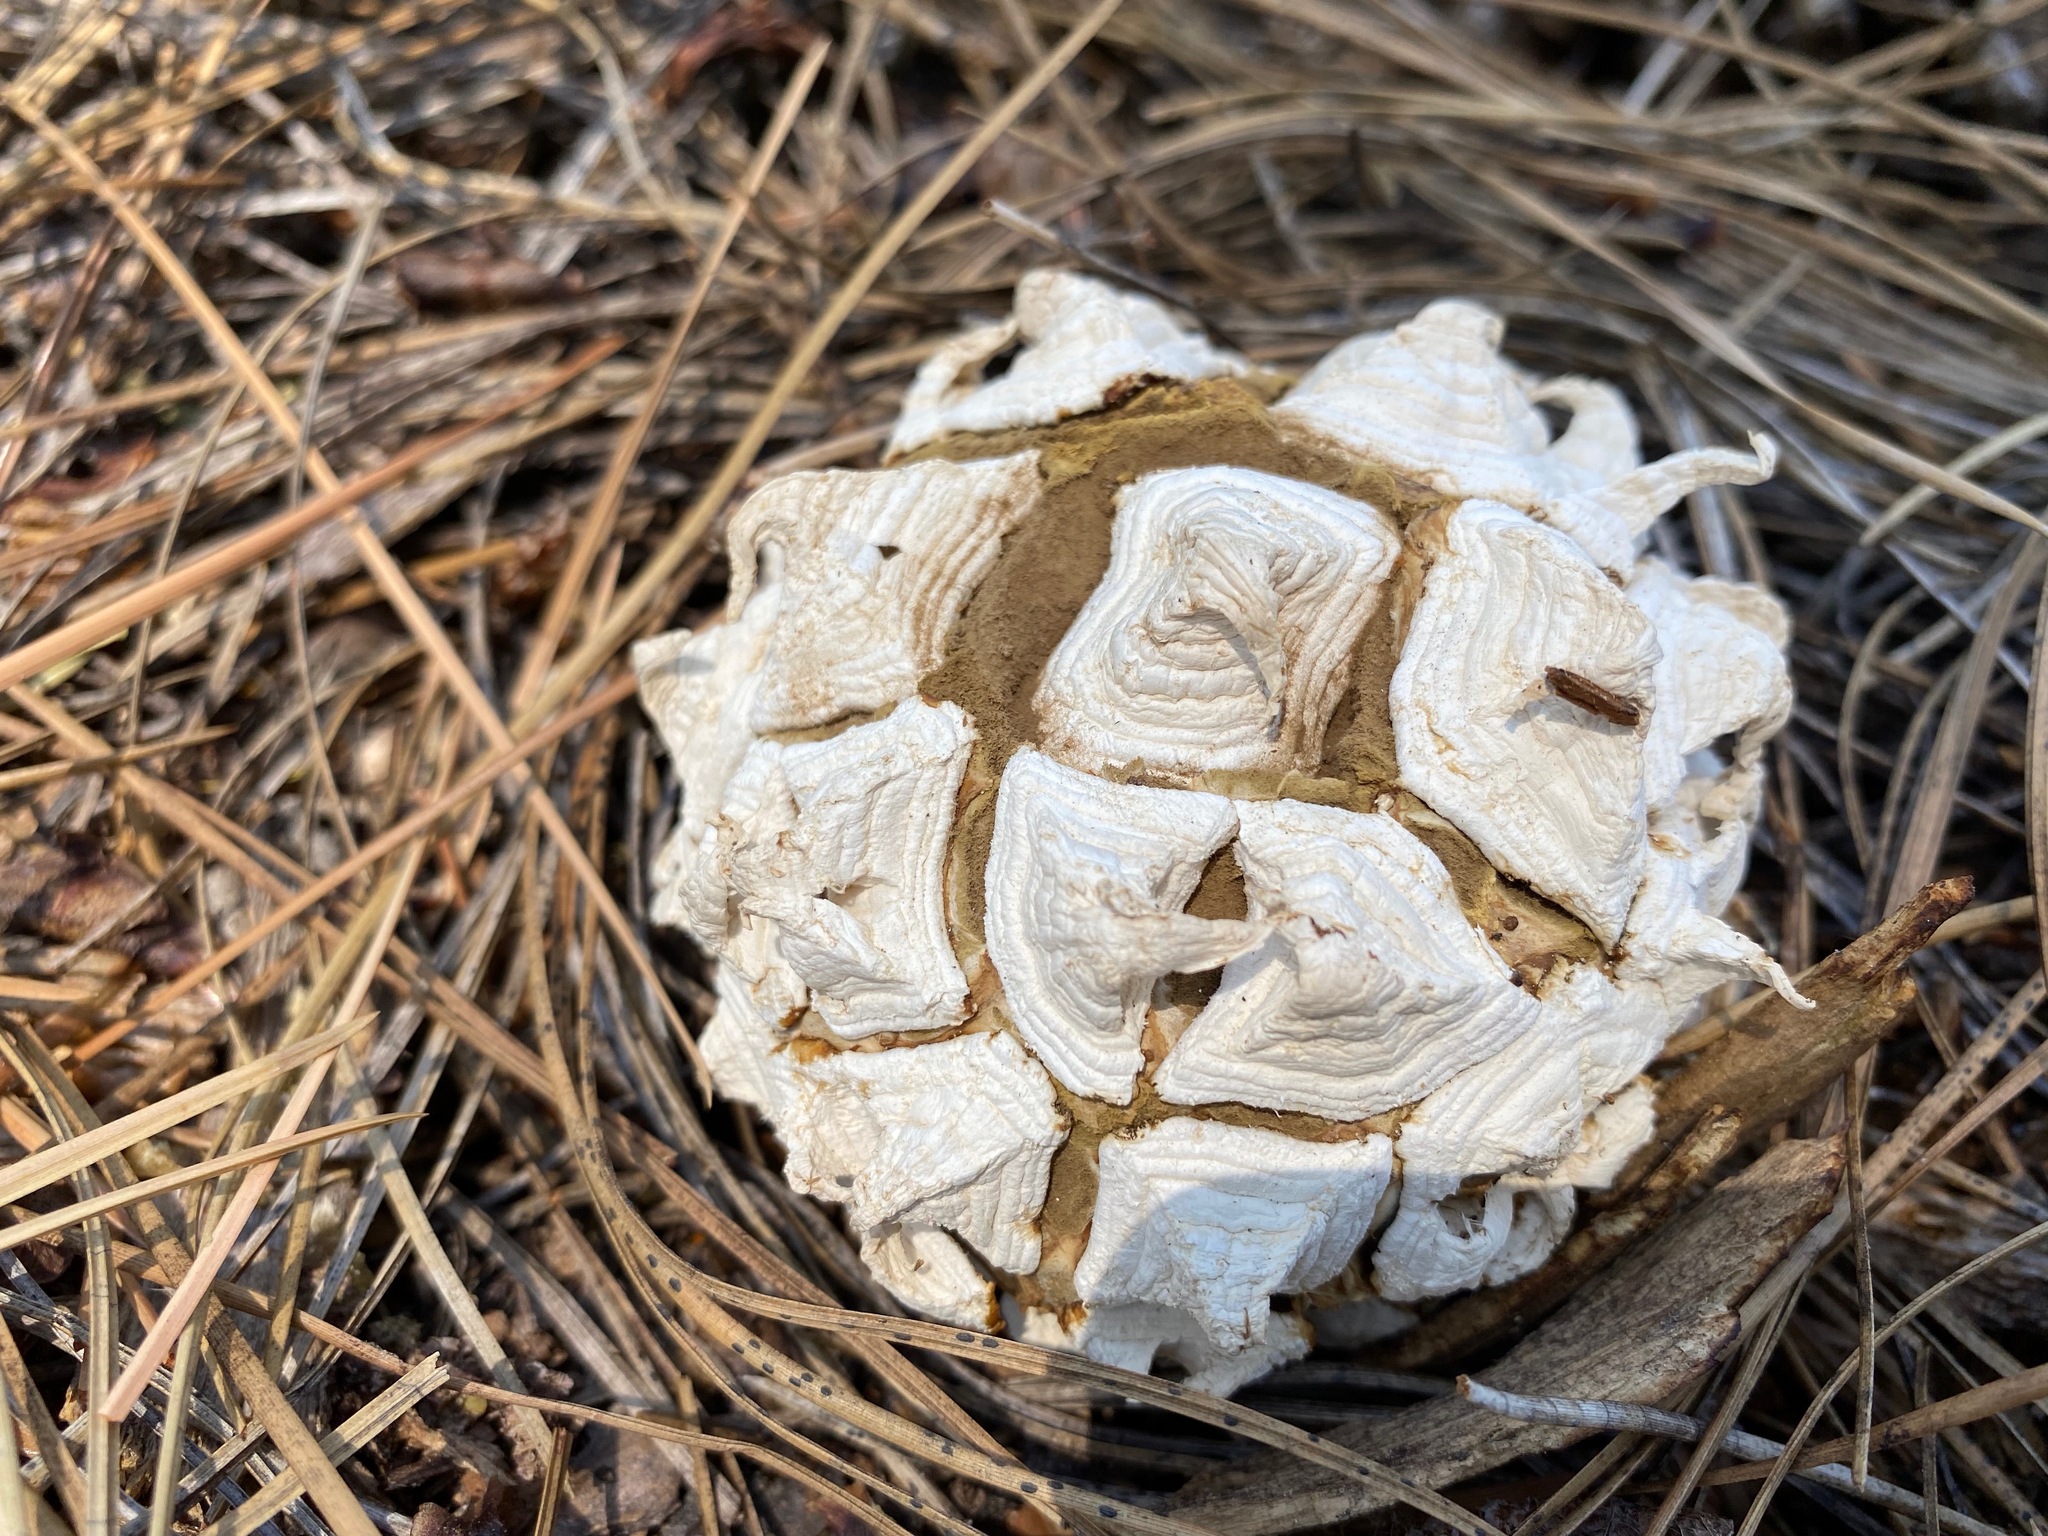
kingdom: Fungi
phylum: Basidiomycota
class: Agaricomycetes
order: Agaricales
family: Lycoperdaceae
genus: Calvatia
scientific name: Calvatia sculpta
